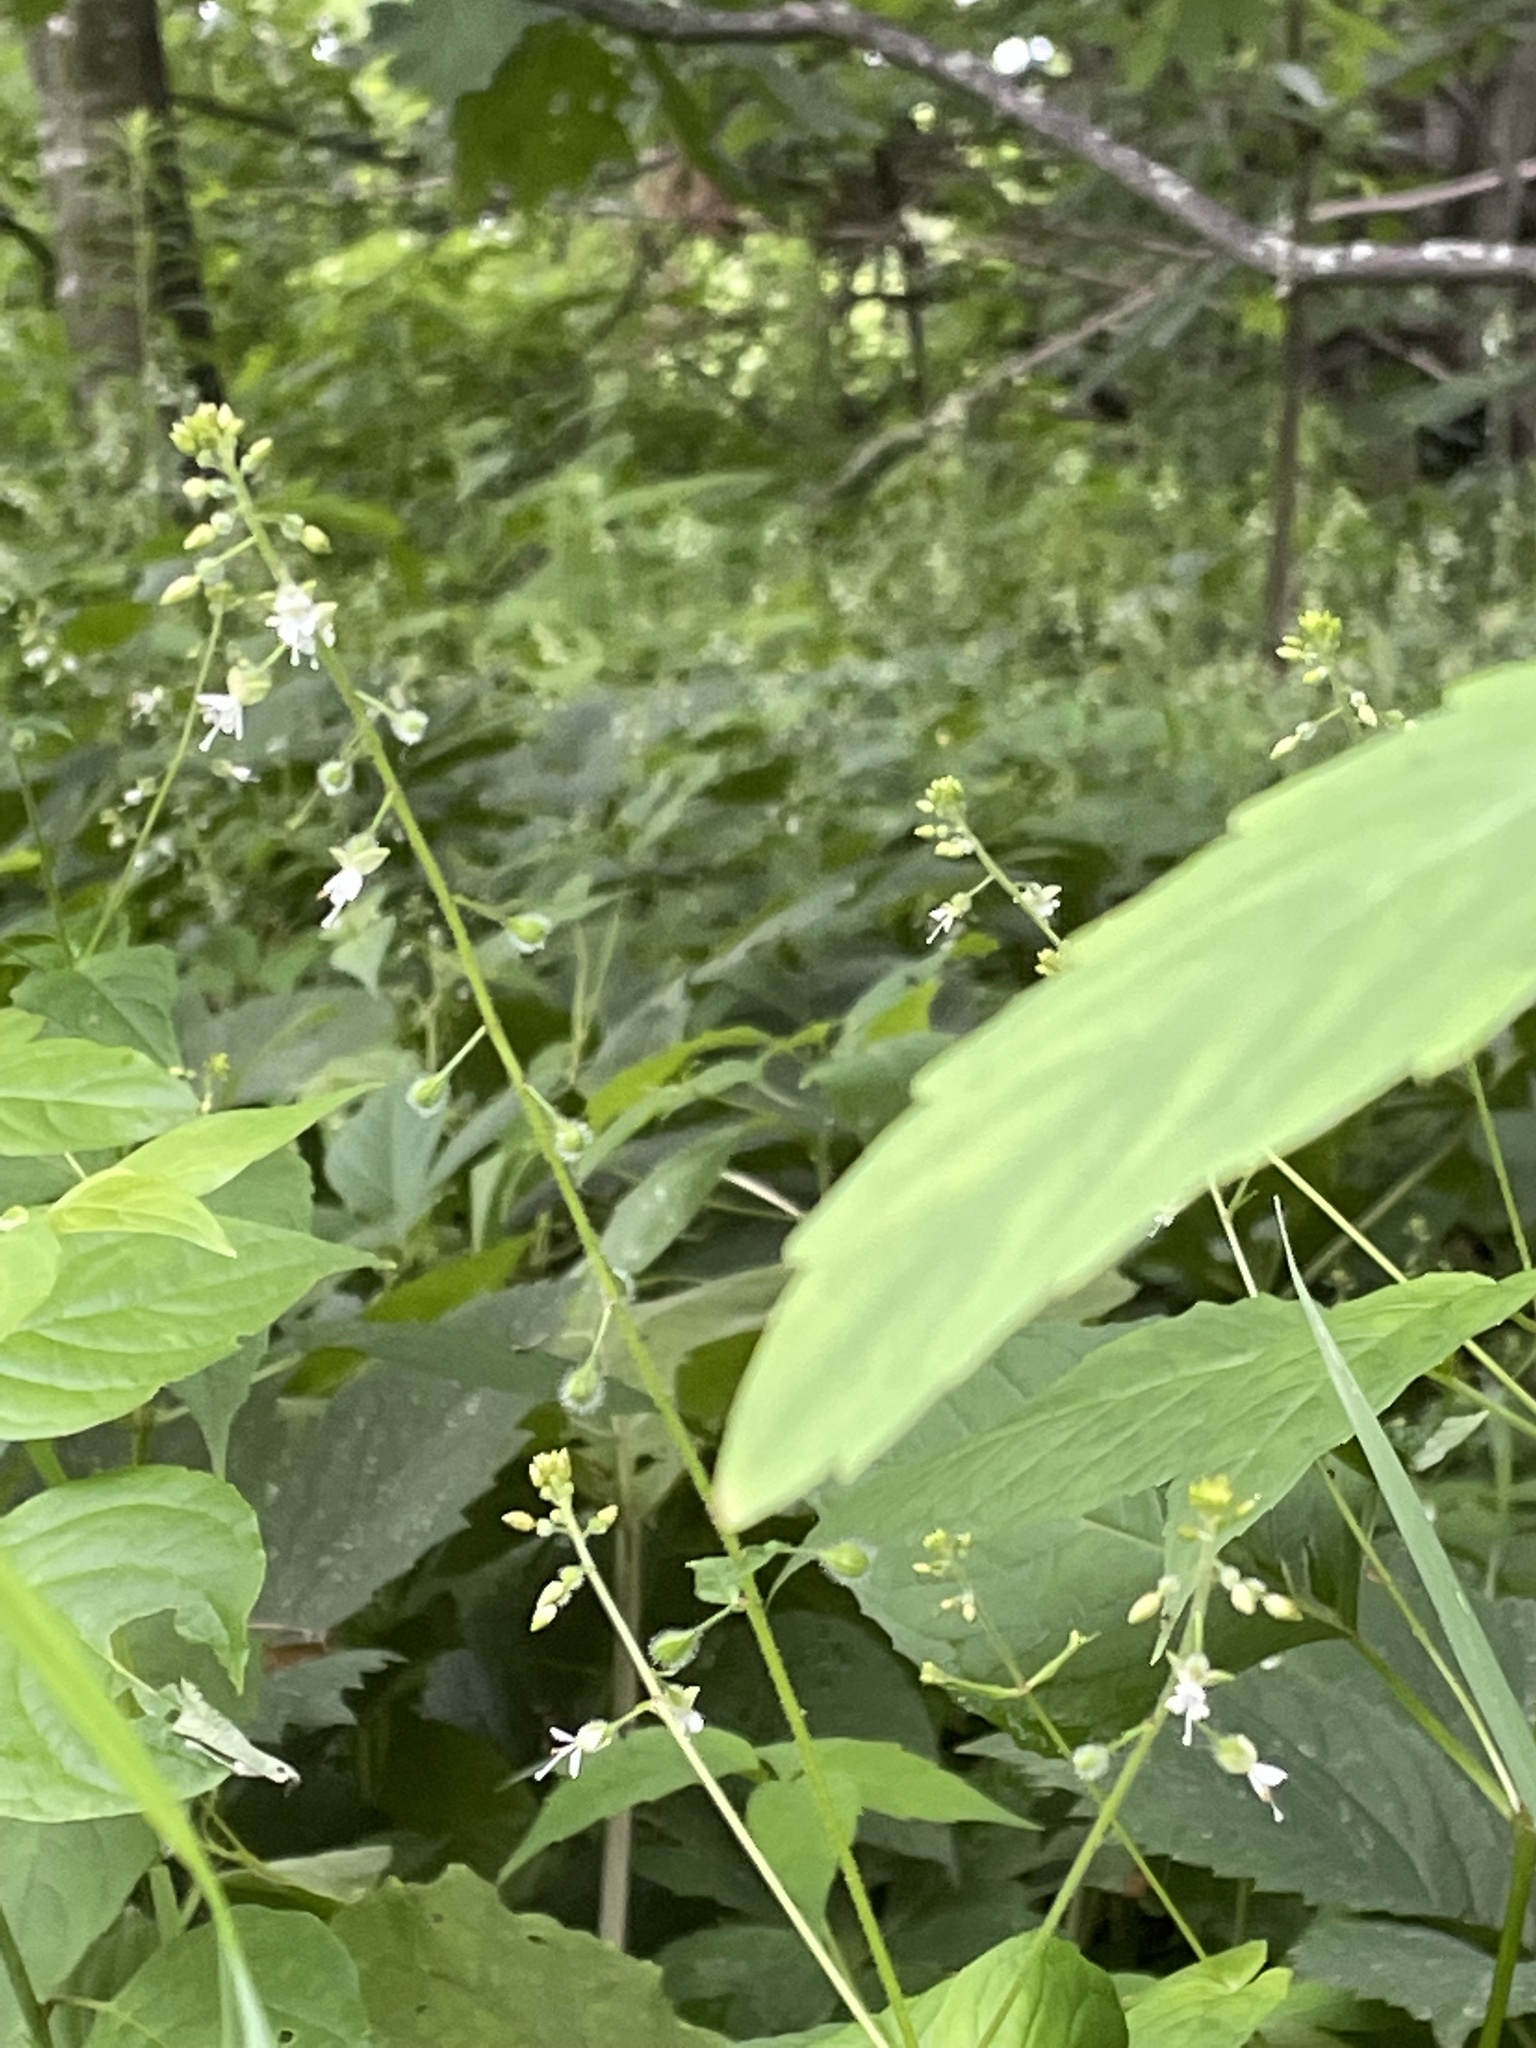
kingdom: Plantae
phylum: Tracheophyta
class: Magnoliopsida
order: Myrtales
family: Onagraceae
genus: Circaea
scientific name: Circaea canadensis
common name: Broad-leaved enchanter's nightshade
